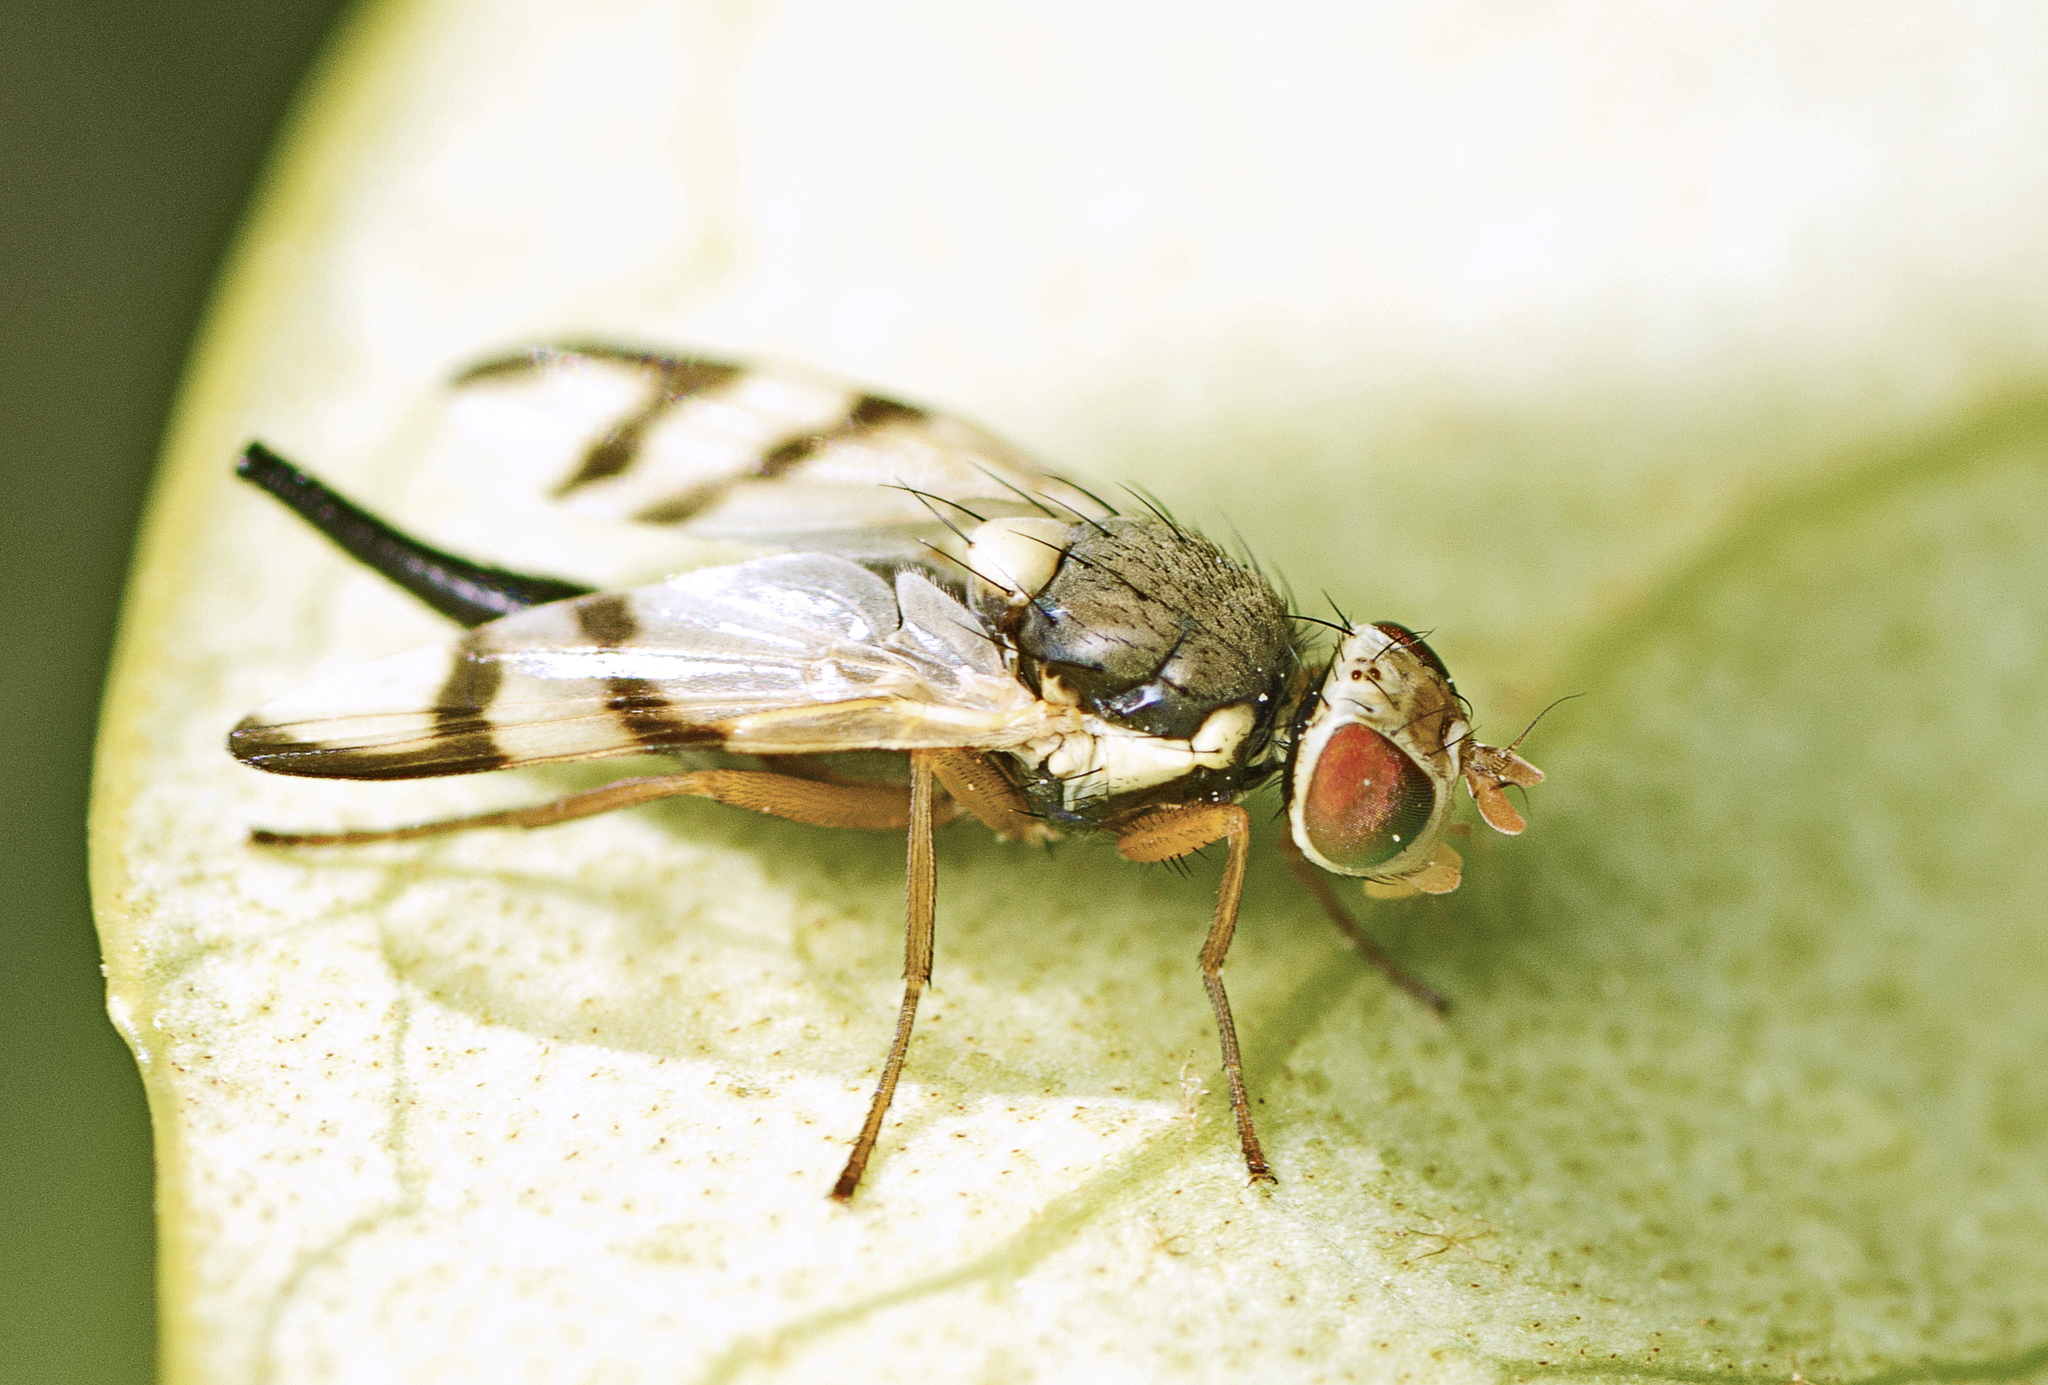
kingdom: Animalia
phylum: Arthropoda
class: Insecta
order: Diptera
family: Tephritidae
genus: Urophora
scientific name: Urophora stylata
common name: Fruit fly
